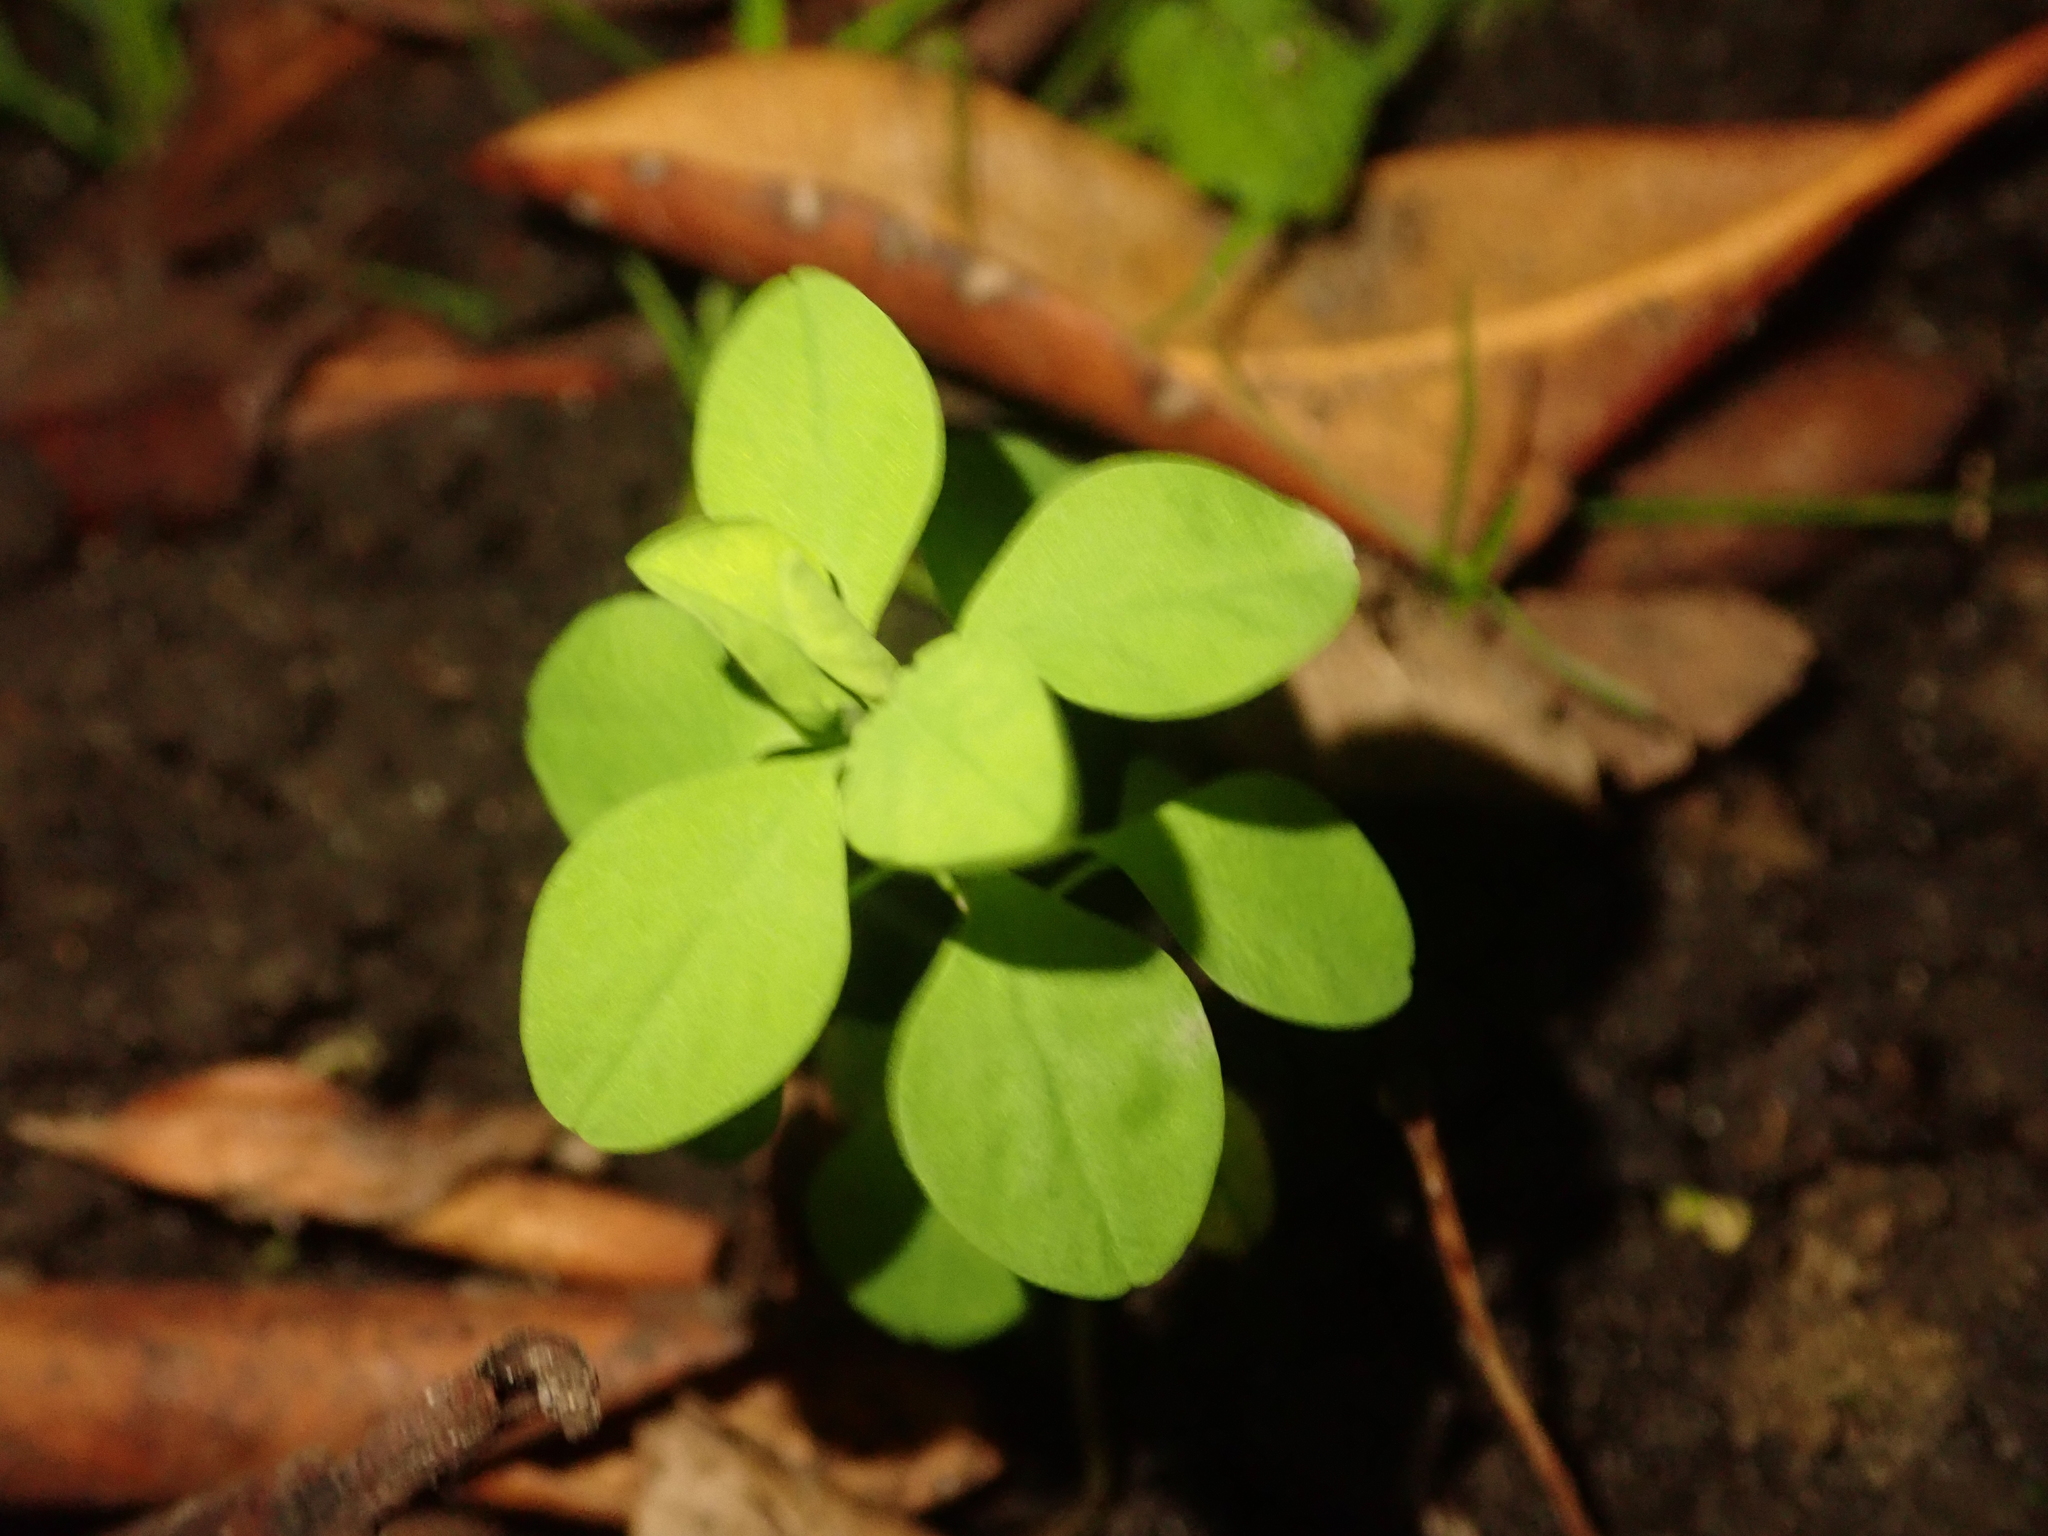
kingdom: Plantae
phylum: Tracheophyta
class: Magnoliopsida
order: Malpighiales
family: Euphorbiaceae
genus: Euphorbia
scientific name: Euphorbia peplus
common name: Petty spurge
